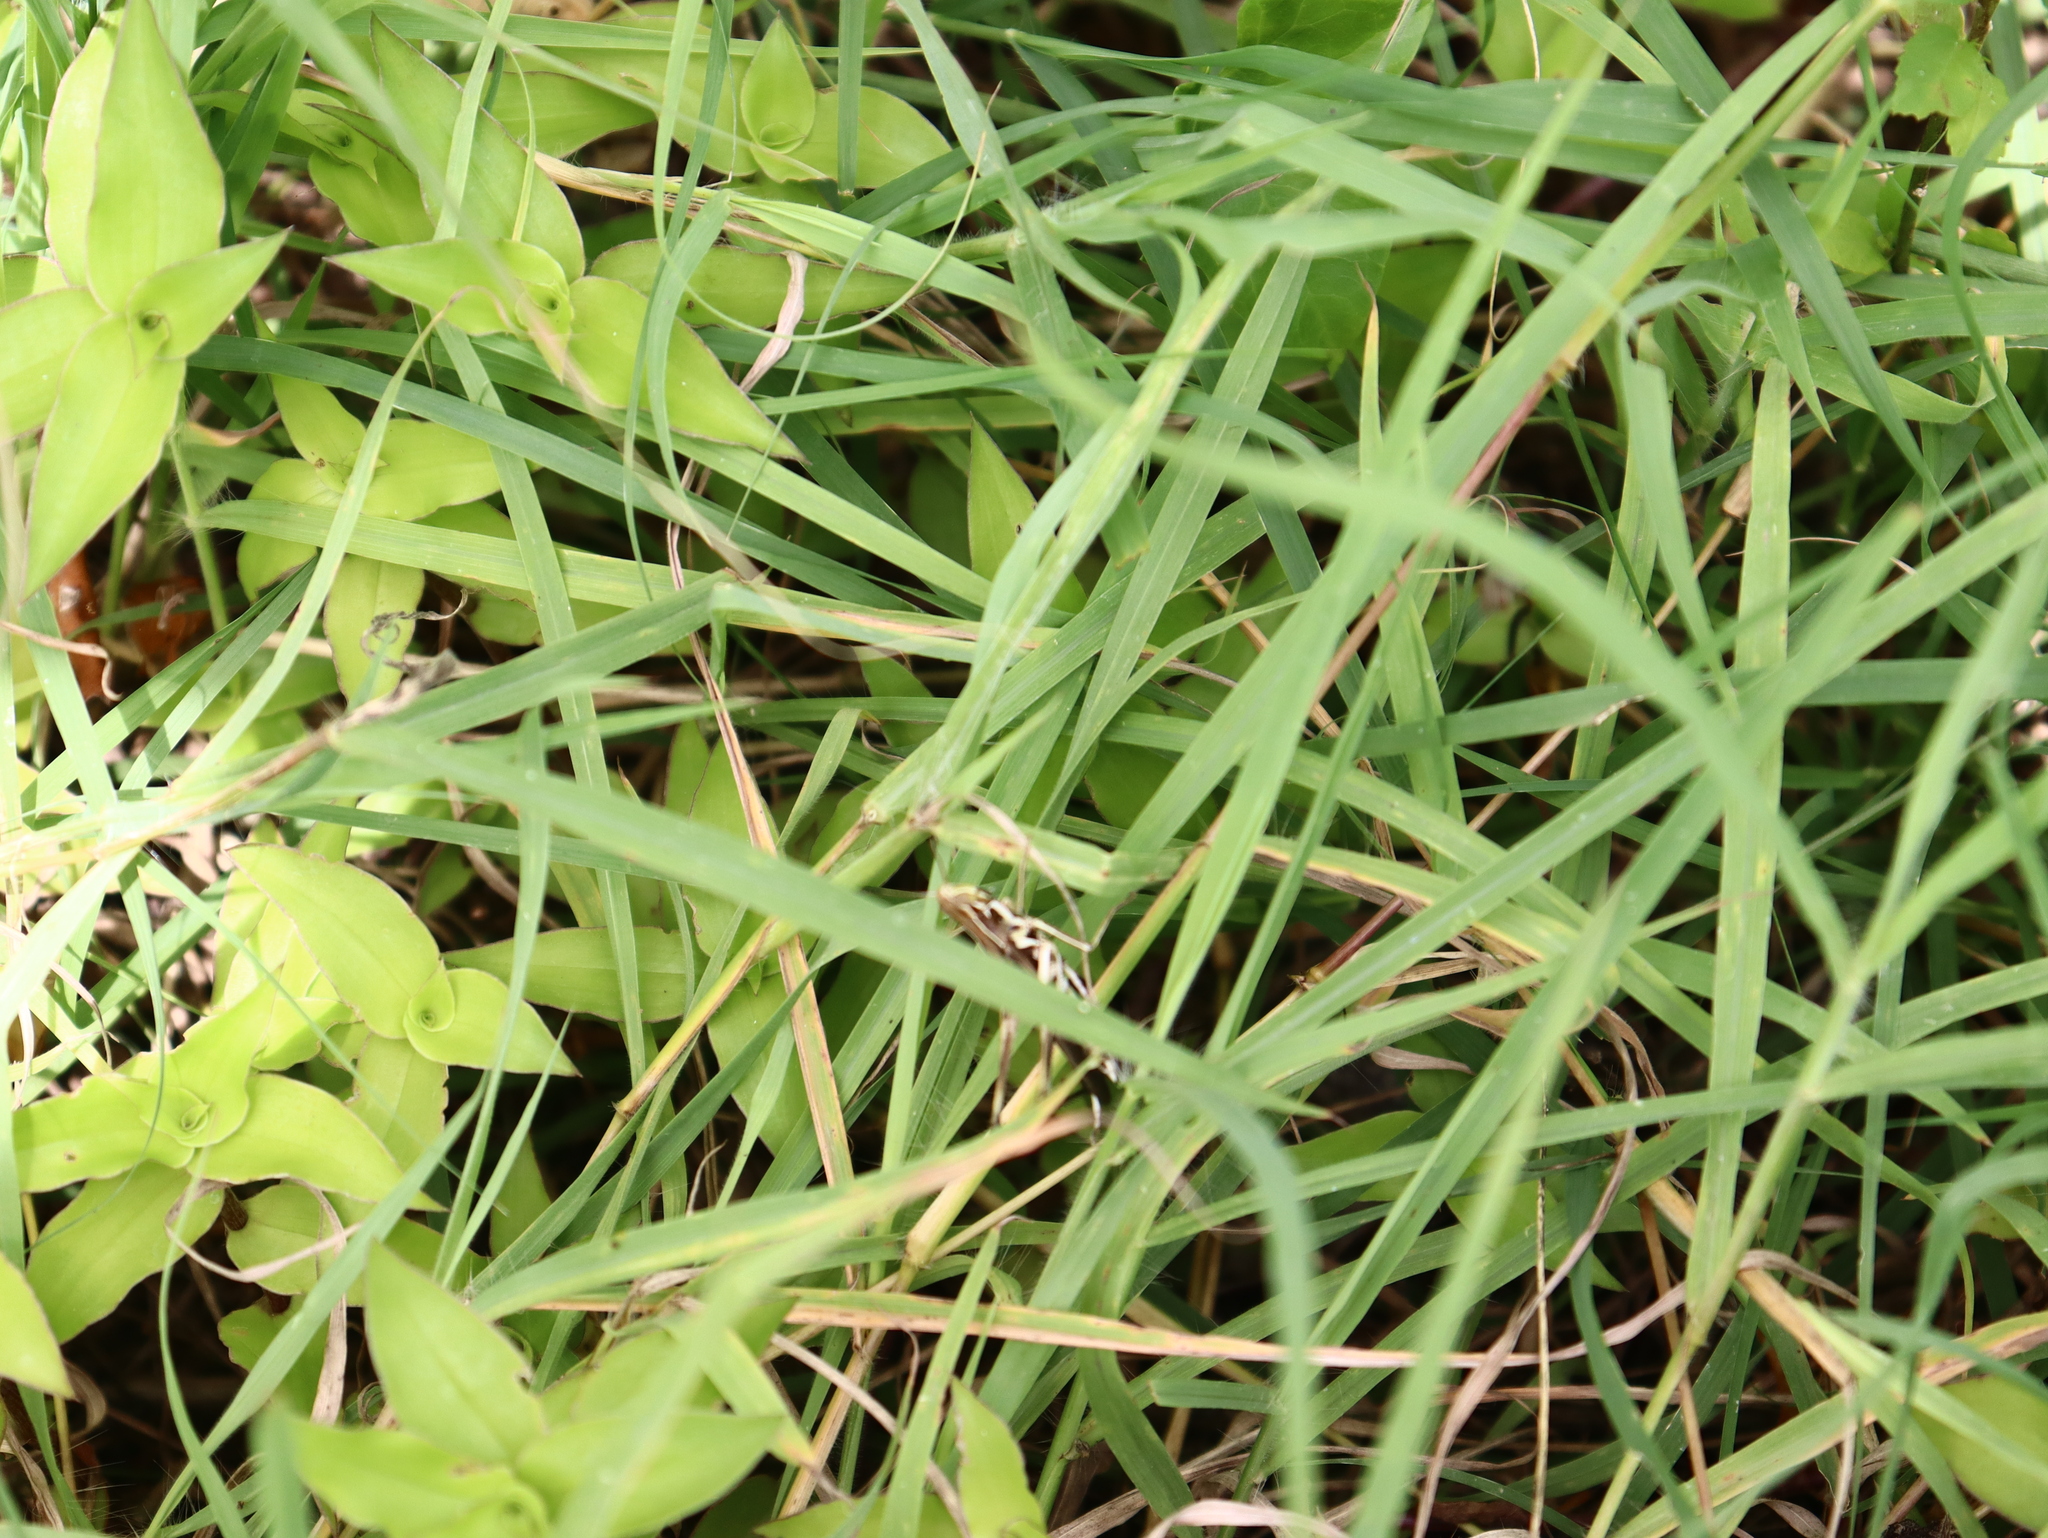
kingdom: Animalia
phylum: Arthropoda
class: Insecta
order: Orthoptera
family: Acrididae
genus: Syrbula
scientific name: Syrbula admirabilis
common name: Handsome grasshopper
